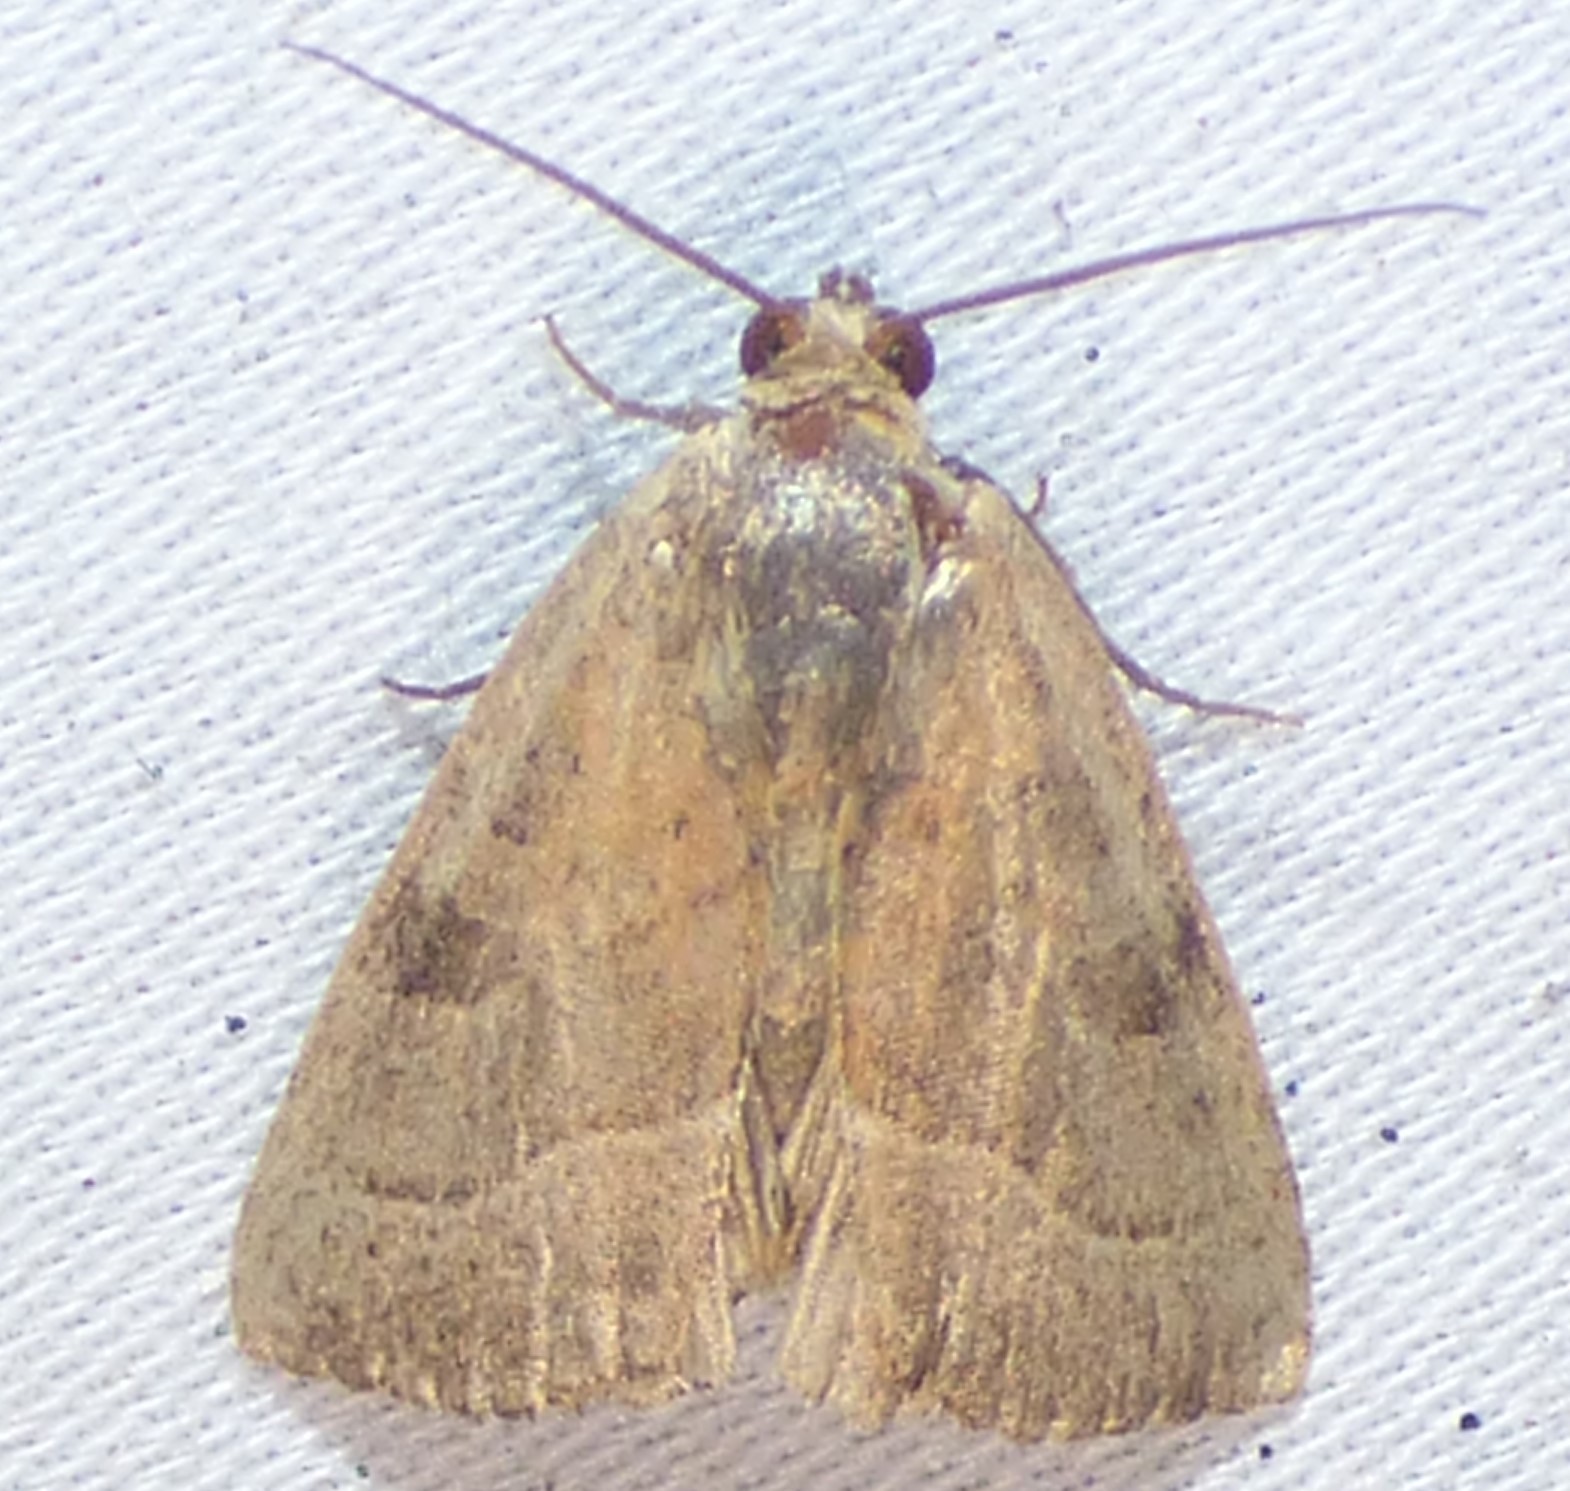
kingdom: Animalia
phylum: Arthropoda
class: Insecta
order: Lepidoptera
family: Noctuidae
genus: Galgula
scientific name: Galgula partita
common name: Wedgeling
